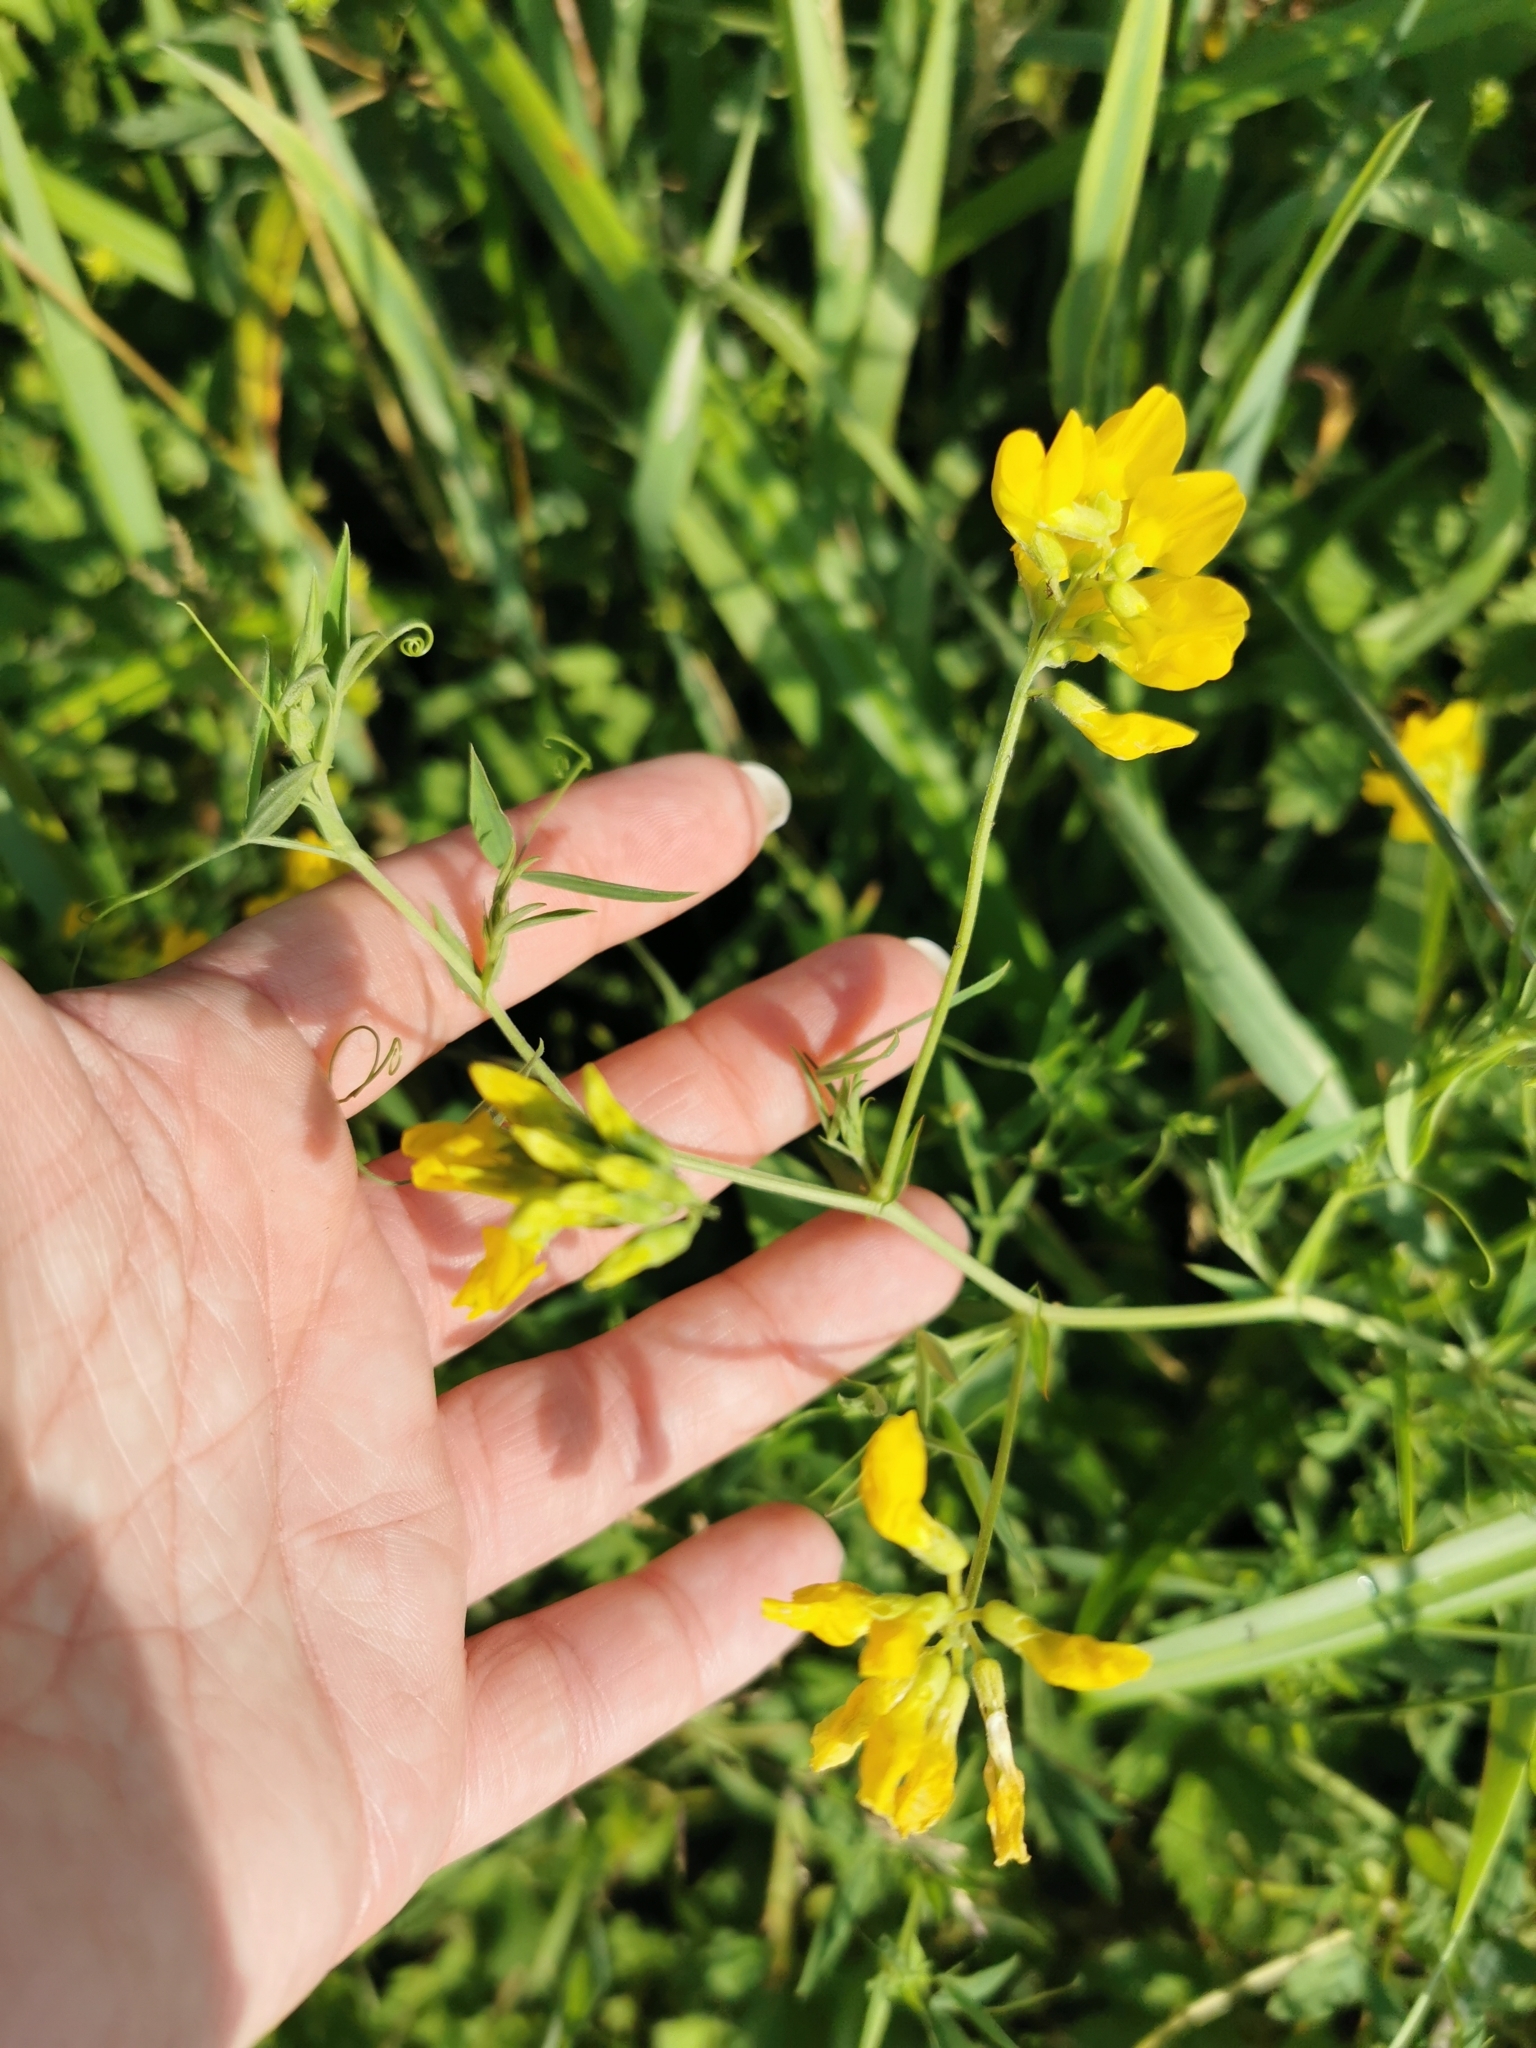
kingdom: Plantae
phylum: Tracheophyta
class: Magnoliopsida
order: Fabales
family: Fabaceae
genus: Lathyrus
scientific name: Lathyrus pratensis
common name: Meadow vetchling
